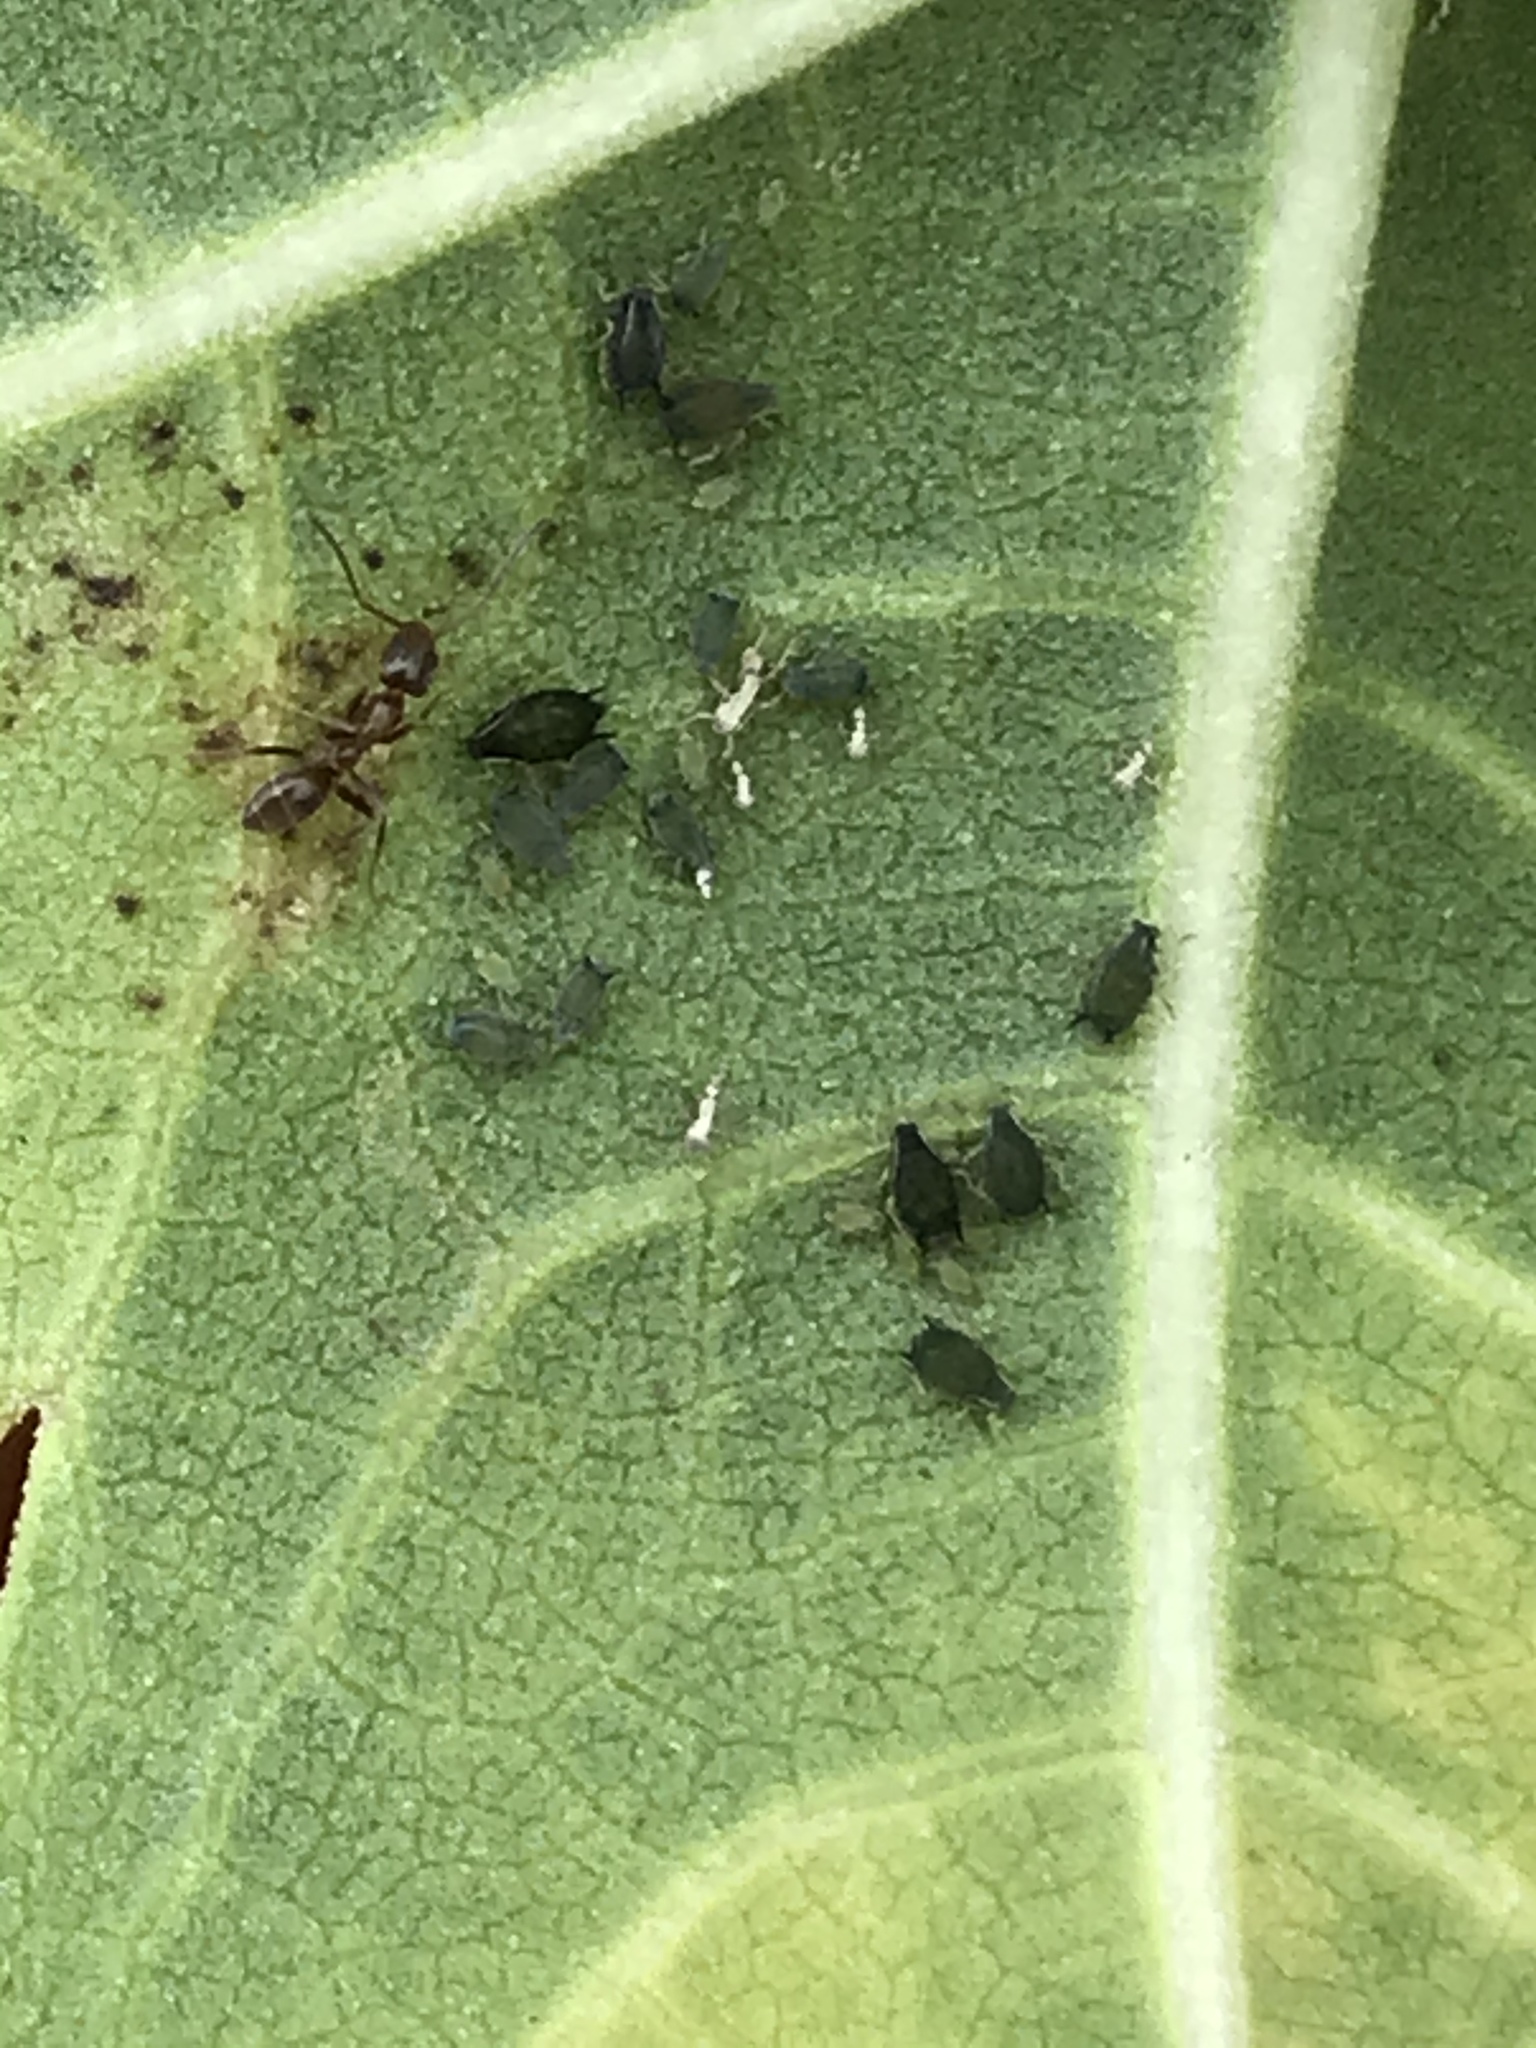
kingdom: Animalia
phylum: Arthropoda
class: Insecta
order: Hymenoptera
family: Formicidae
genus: Linepithema
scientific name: Linepithema humile
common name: Argentine ant
